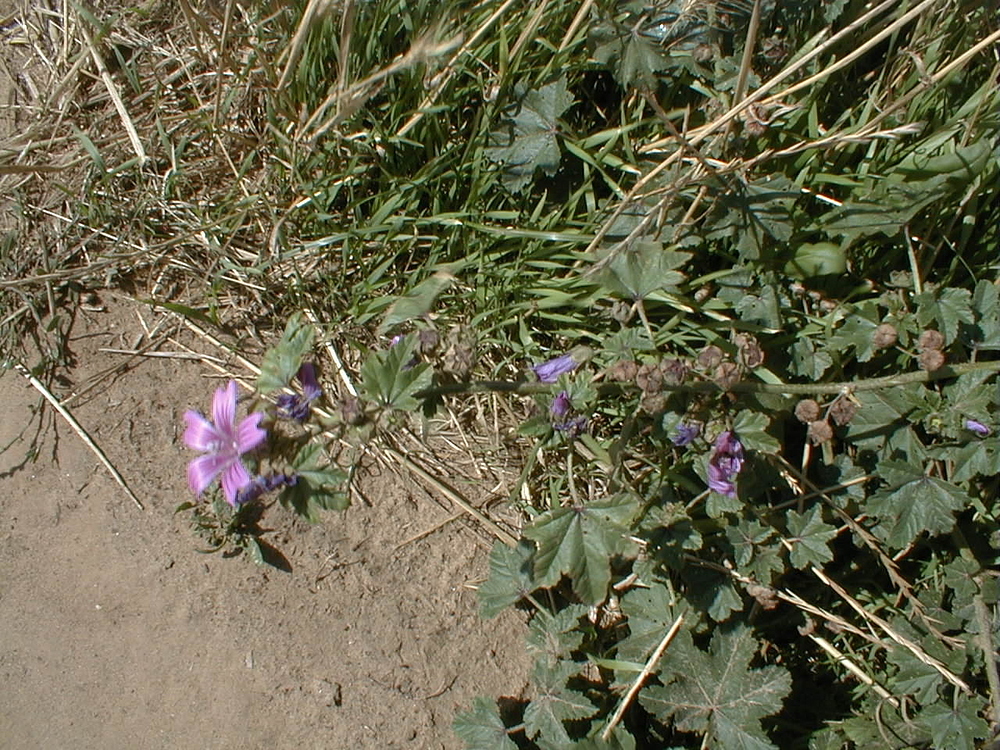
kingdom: Plantae
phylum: Tracheophyta
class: Magnoliopsida
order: Malvales
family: Malvaceae
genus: Malva
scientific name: Malva sylvestris
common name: Common mallow
